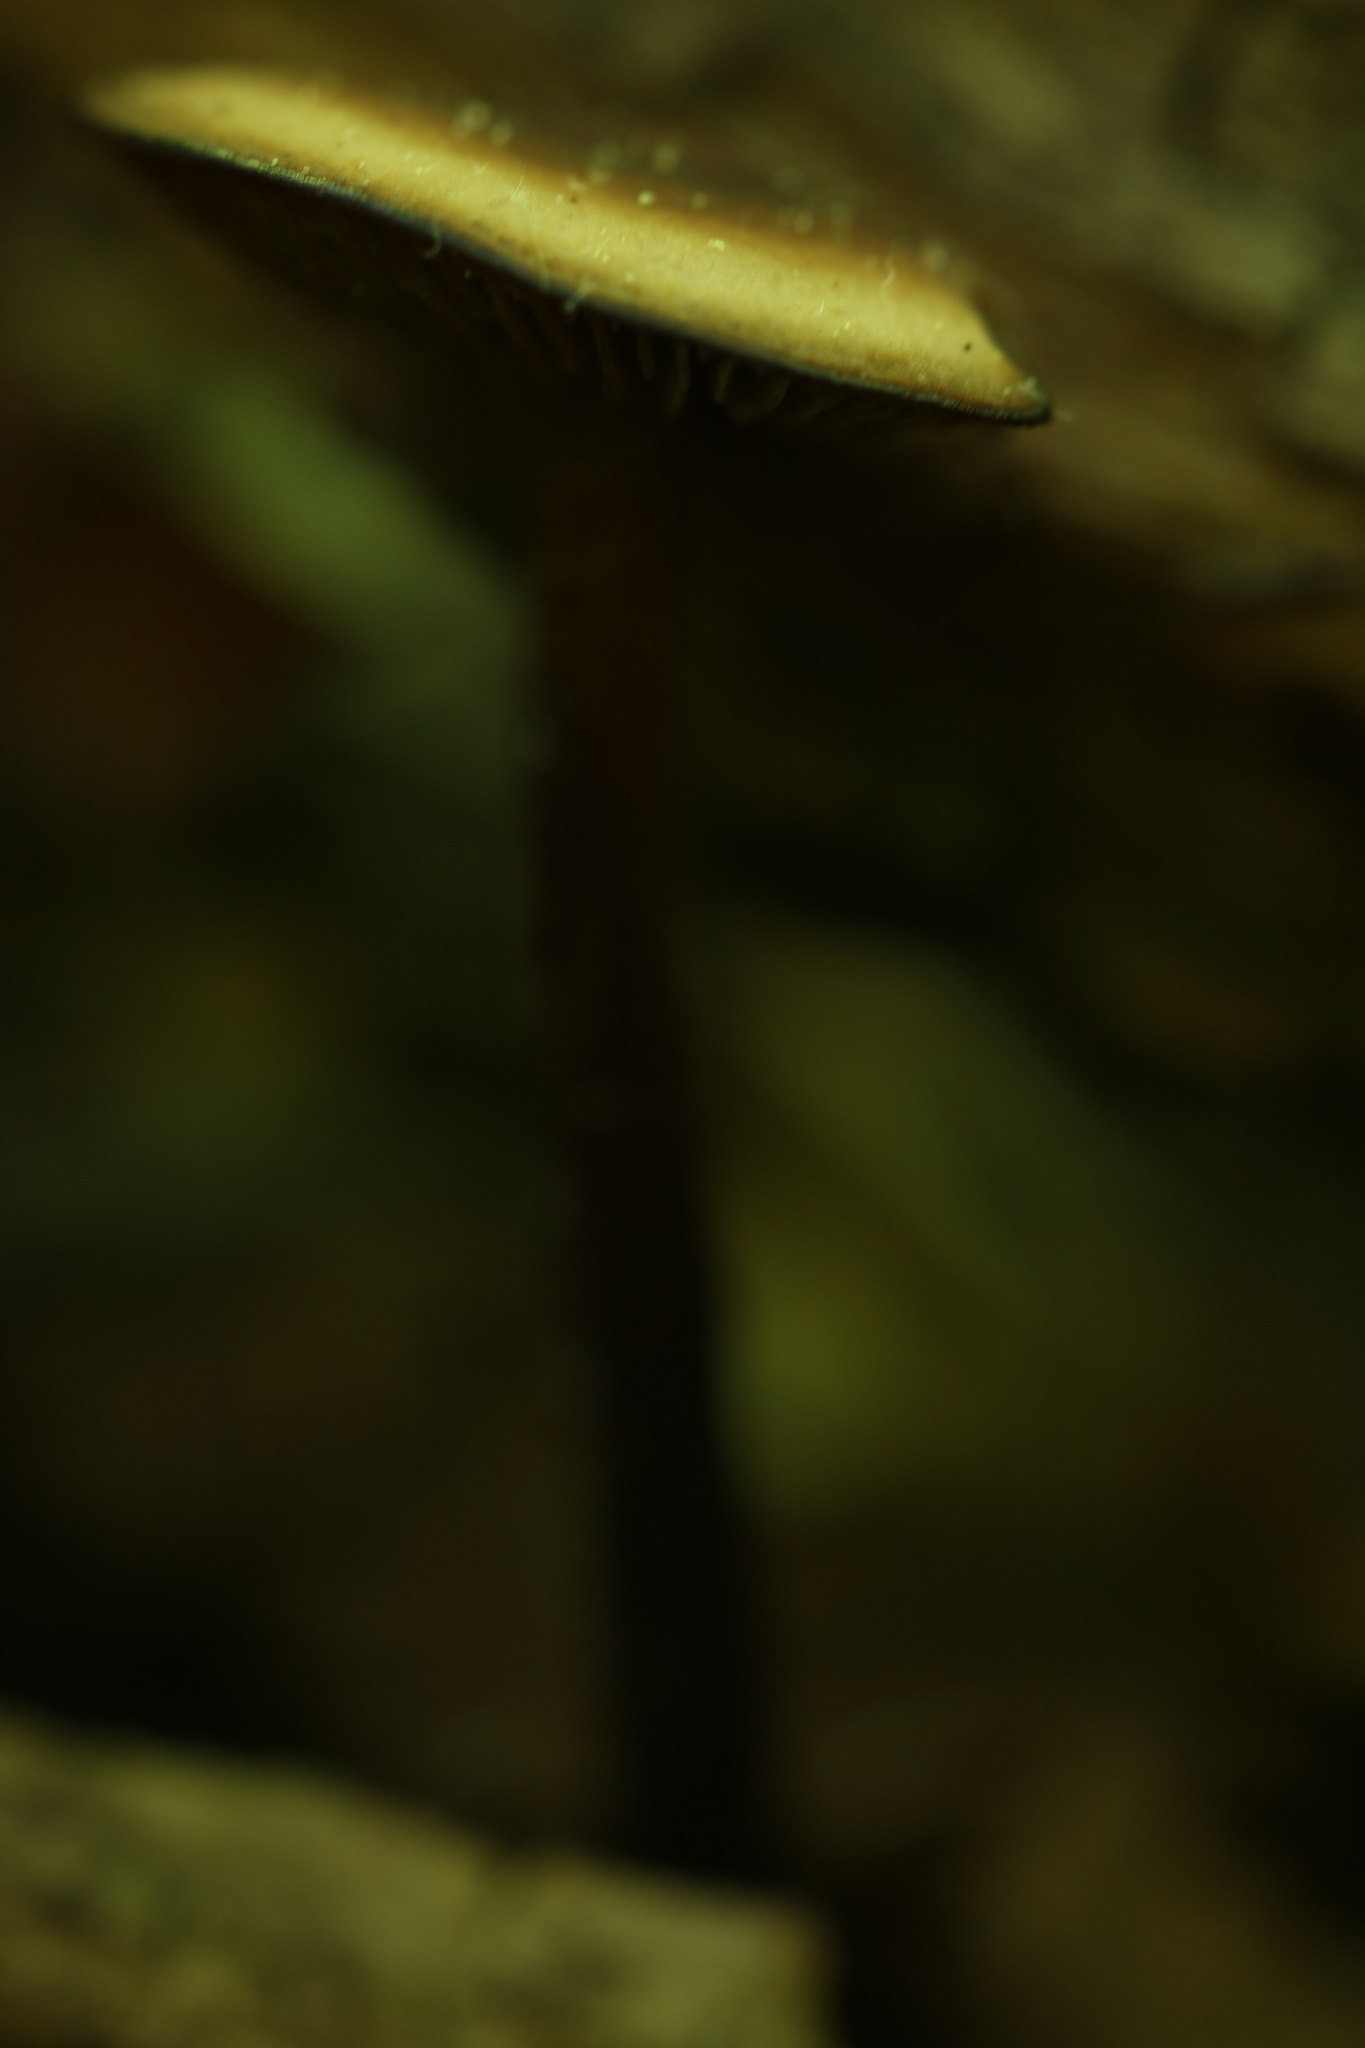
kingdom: Fungi
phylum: Basidiomycota
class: Agaricomycetes
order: Agaricales
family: Omphalotaceae
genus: Gymnopus
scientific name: Gymnopus alkalivirens
